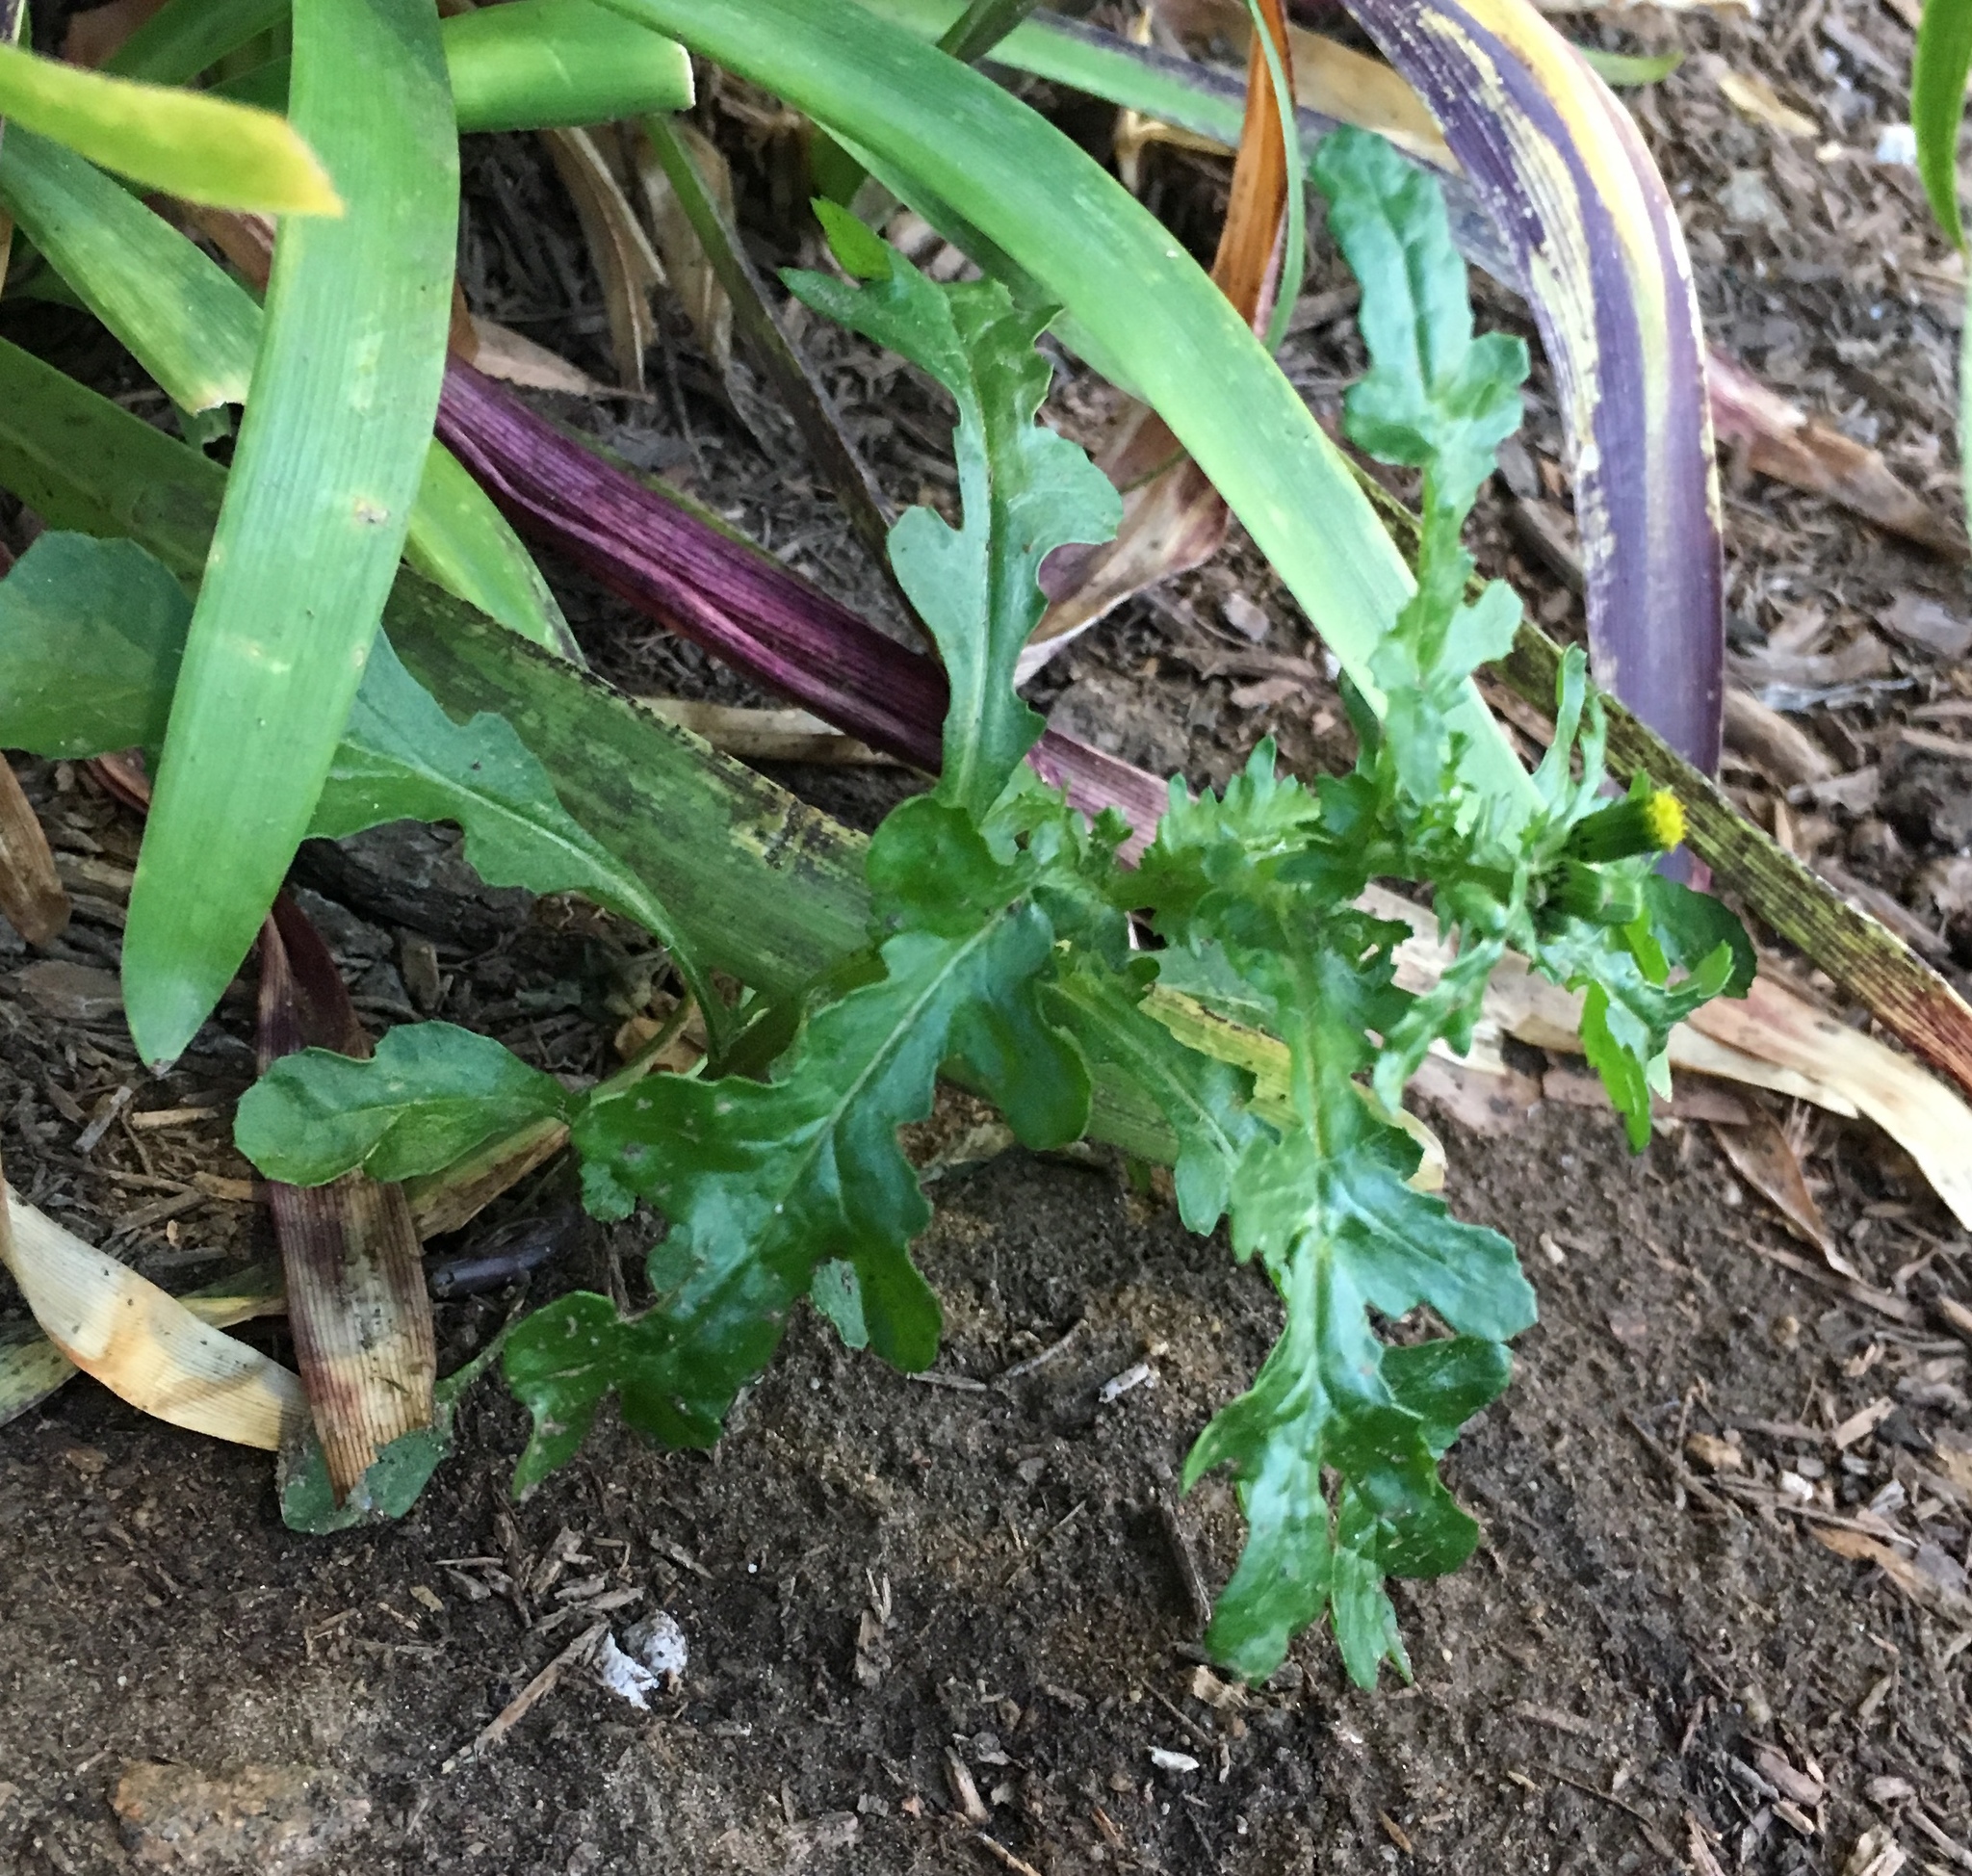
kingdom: Plantae
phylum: Tracheophyta
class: Magnoliopsida
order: Asterales
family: Asteraceae
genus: Senecio
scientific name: Senecio vulgaris
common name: Old-man-in-the-spring
